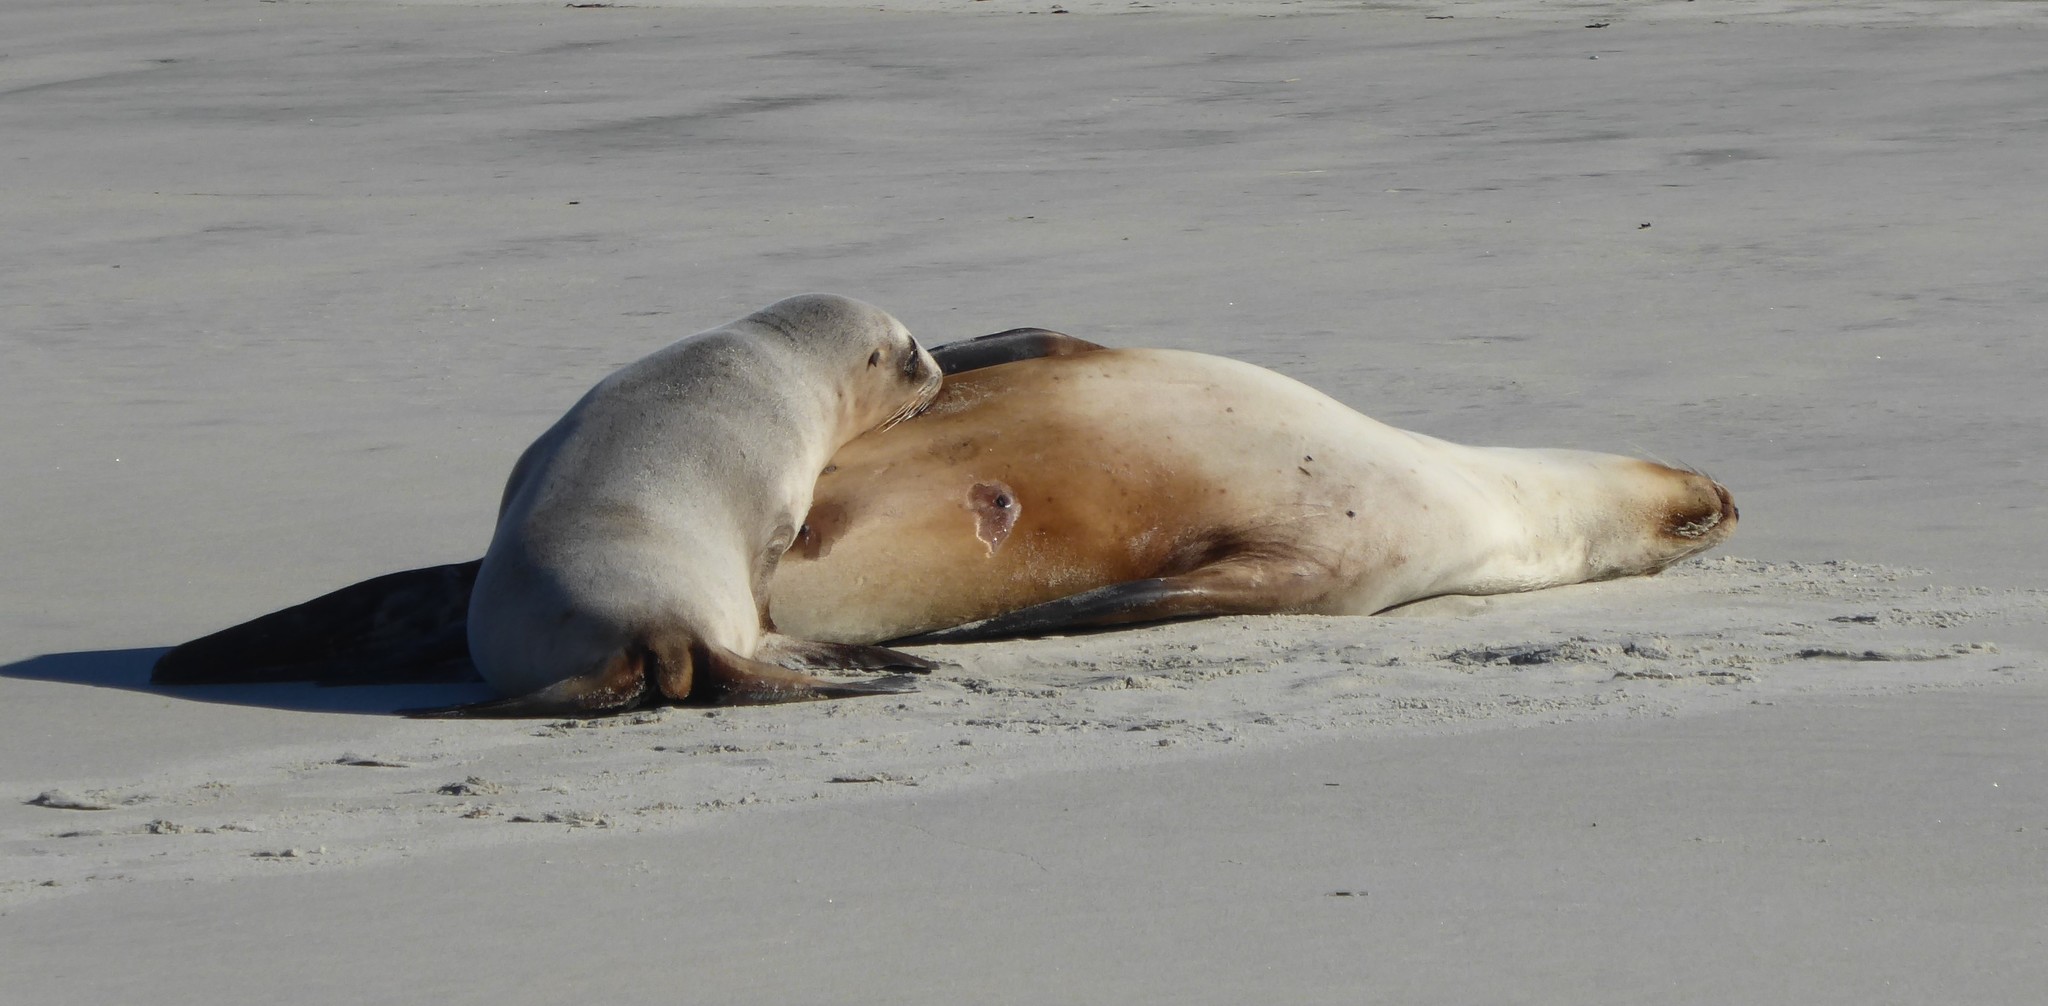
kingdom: Animalia
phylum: Chordata
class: Mammalia
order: Carnivora
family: Otariidae
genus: Phocarctos
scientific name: Phocarctos hookeri
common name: New zealand sea lion
